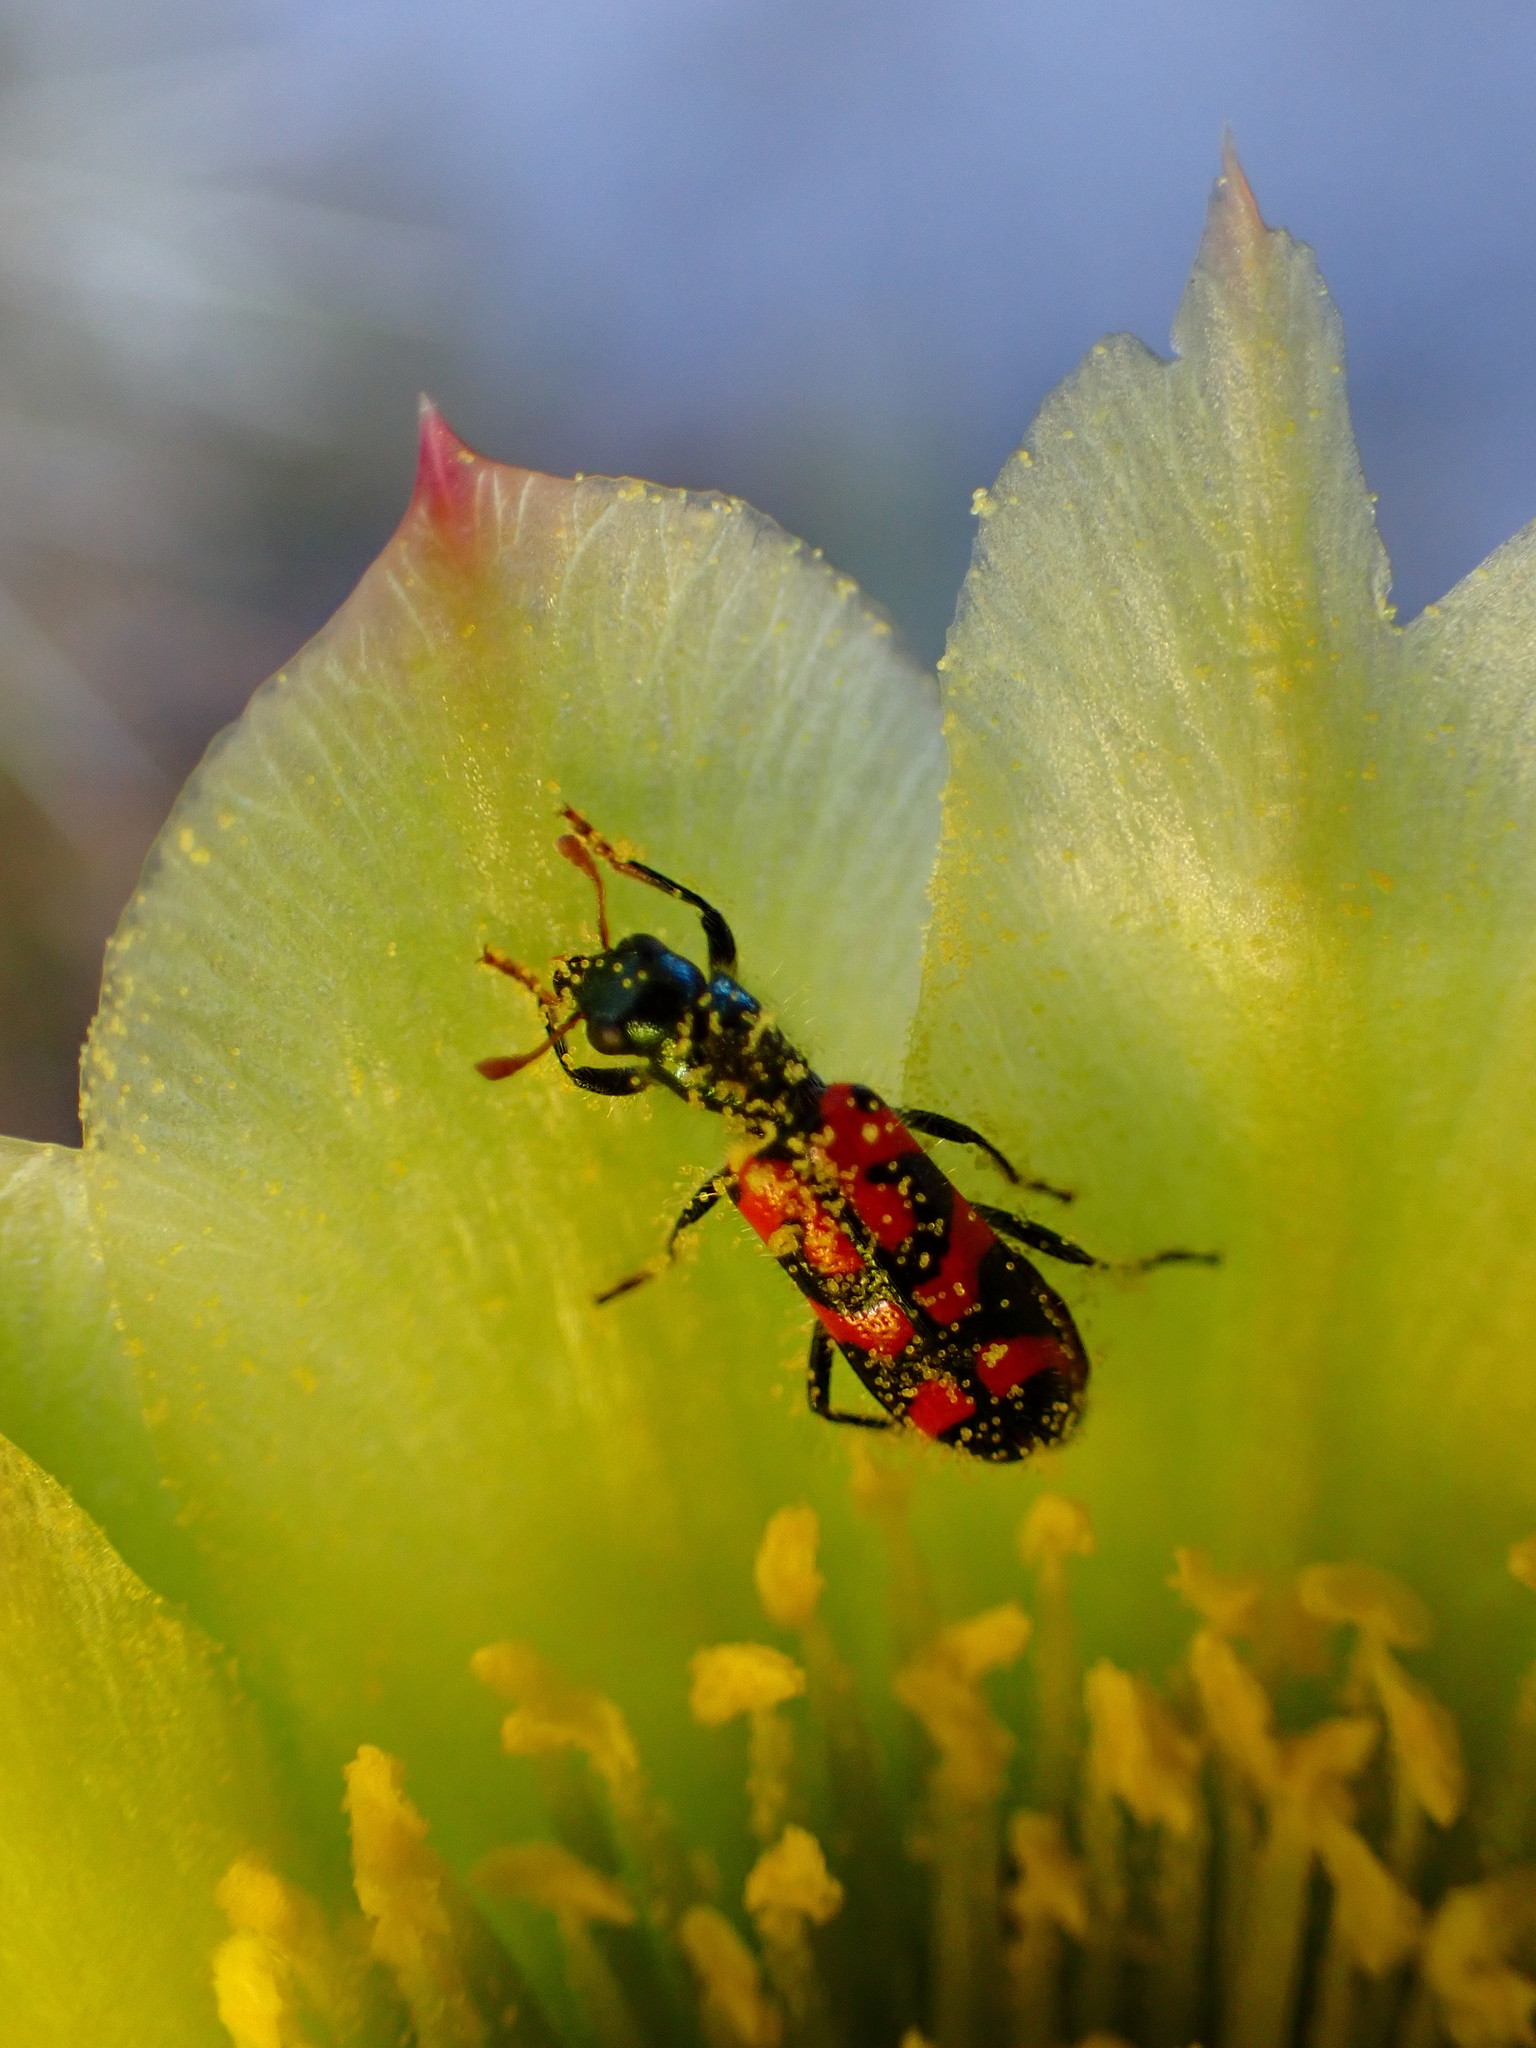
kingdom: Animalia
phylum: Arthropoda
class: Insecta
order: Coleoptera
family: Cleridae
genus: Trichodes
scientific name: Trichodes ornatus
